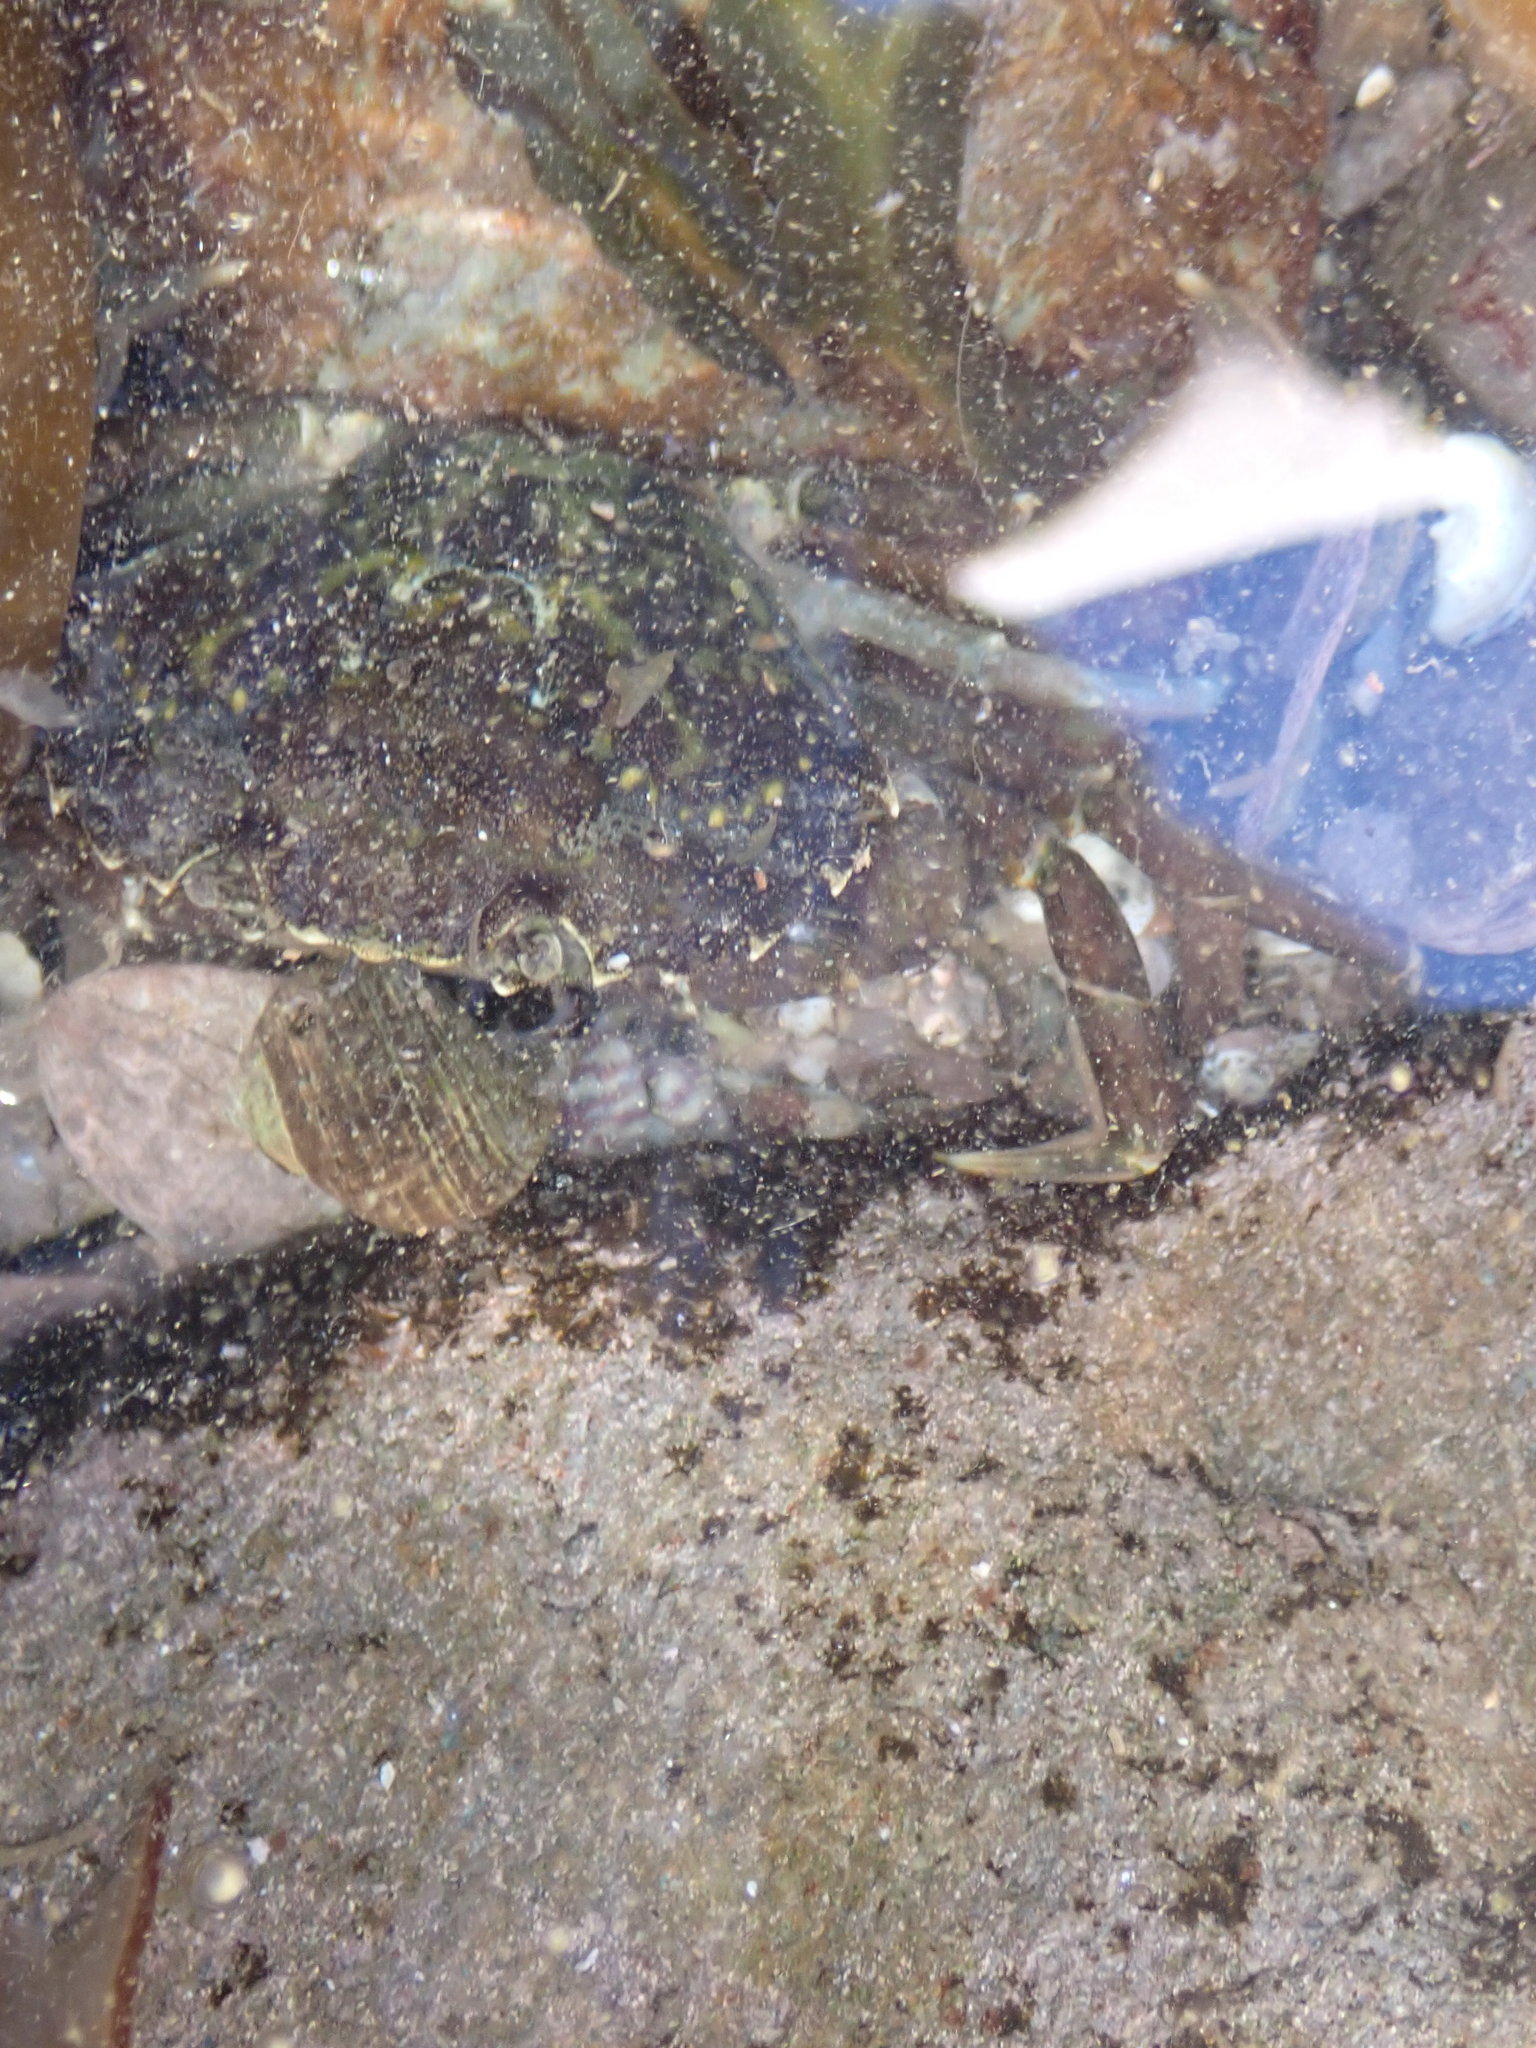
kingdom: Animalia
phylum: Arthropoda
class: Malacostraca
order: Decapoda
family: Carcinidae
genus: Carcinus
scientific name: Carcinus maenas
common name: European green crab
